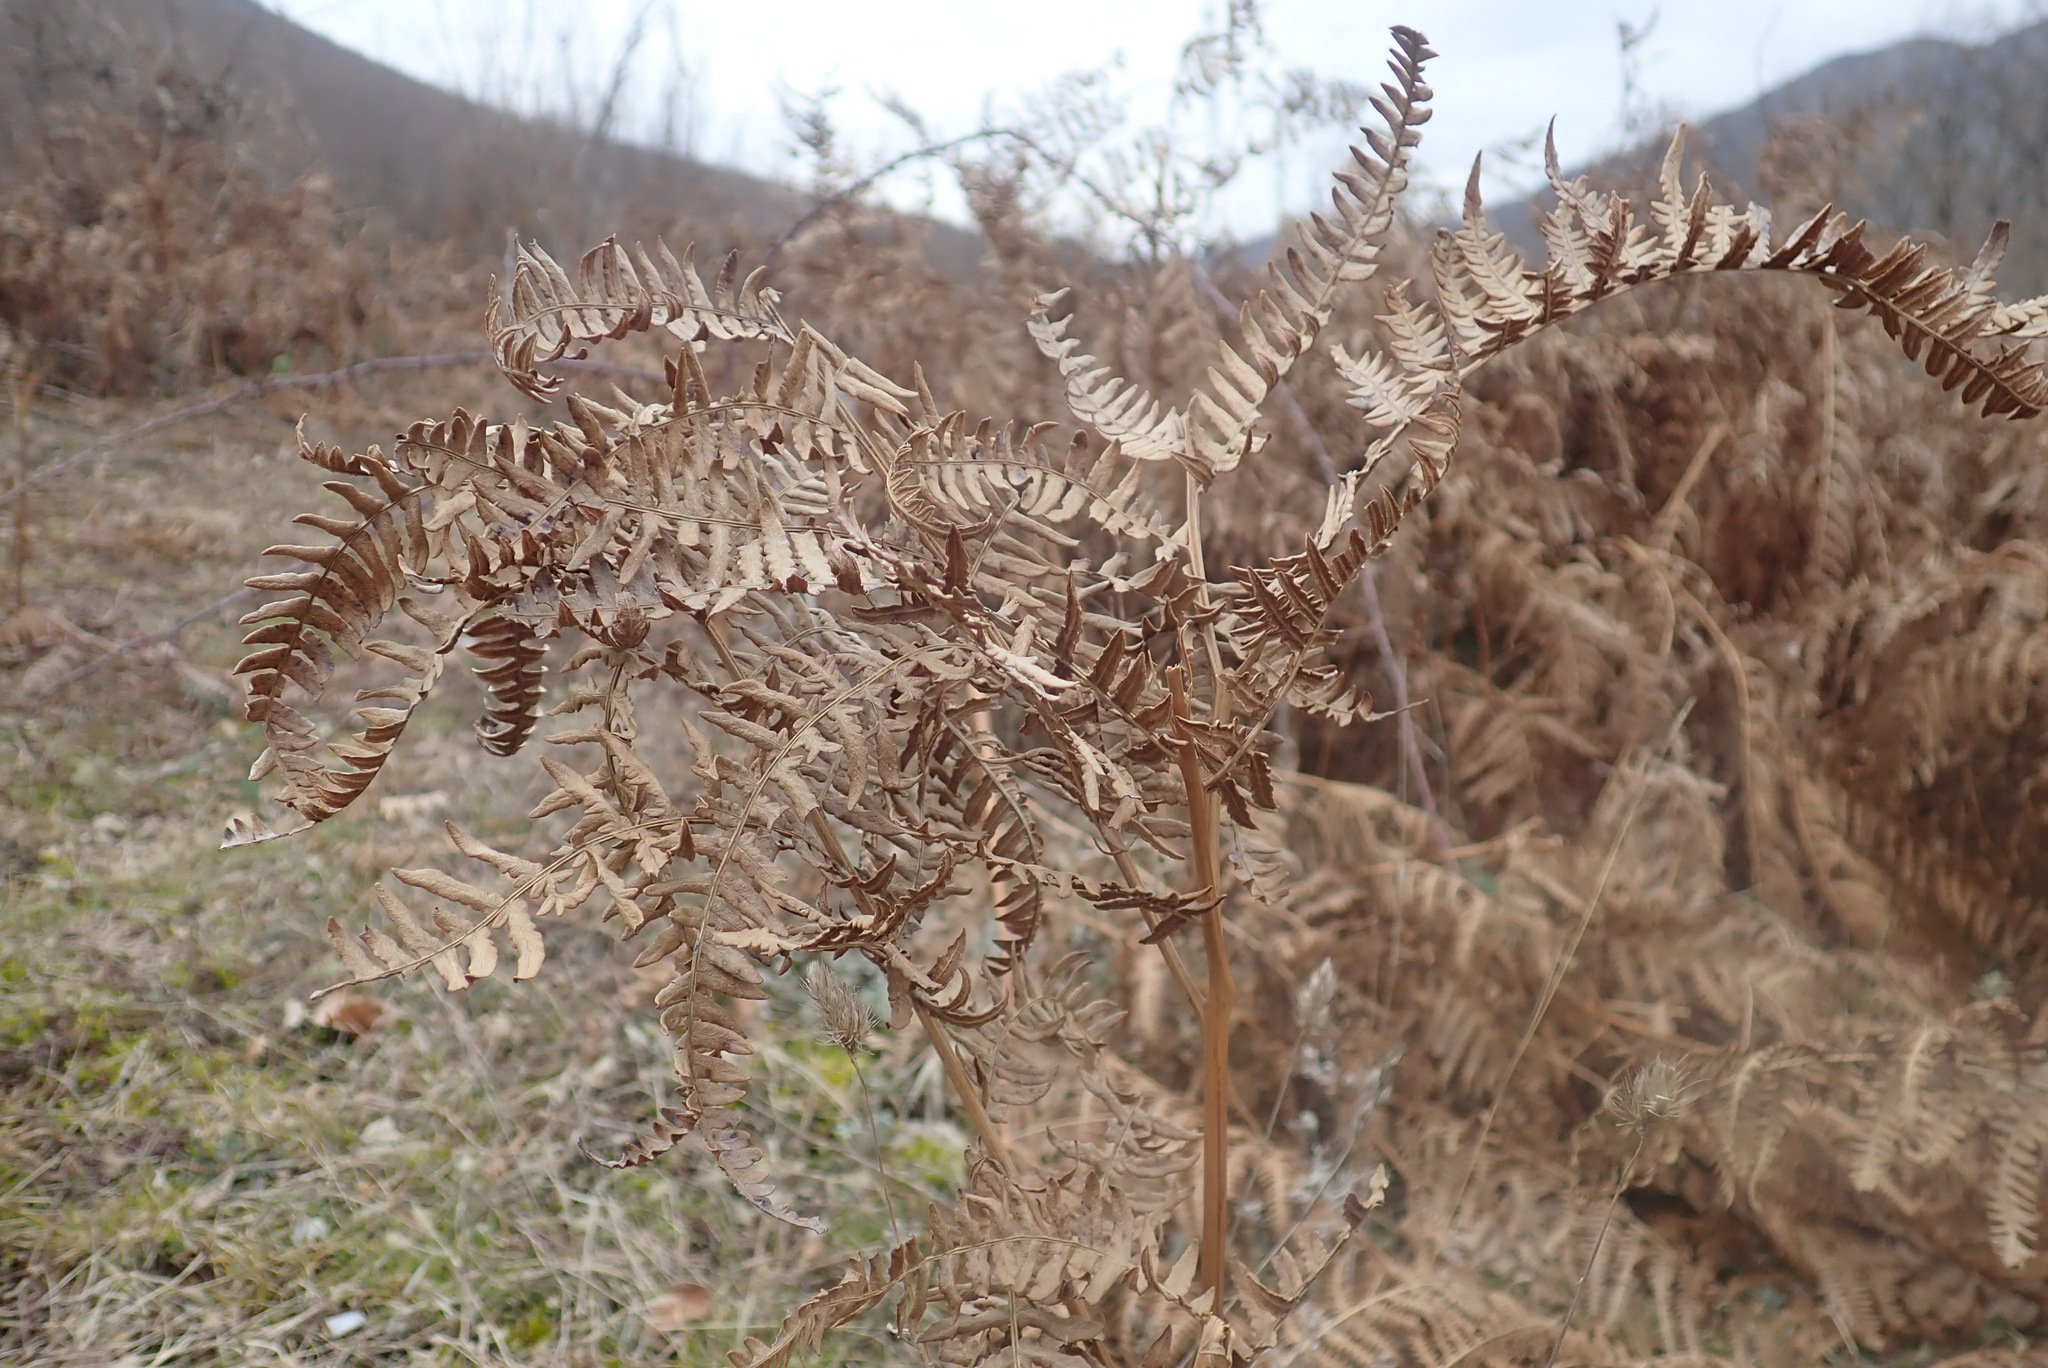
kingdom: Plantae
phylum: Tracheophyta
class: Polypodiopsida
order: Polypodiales
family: Dennstaedtiaceae
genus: Pteridium
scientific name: Pteridium aquilinum
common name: Bracken
